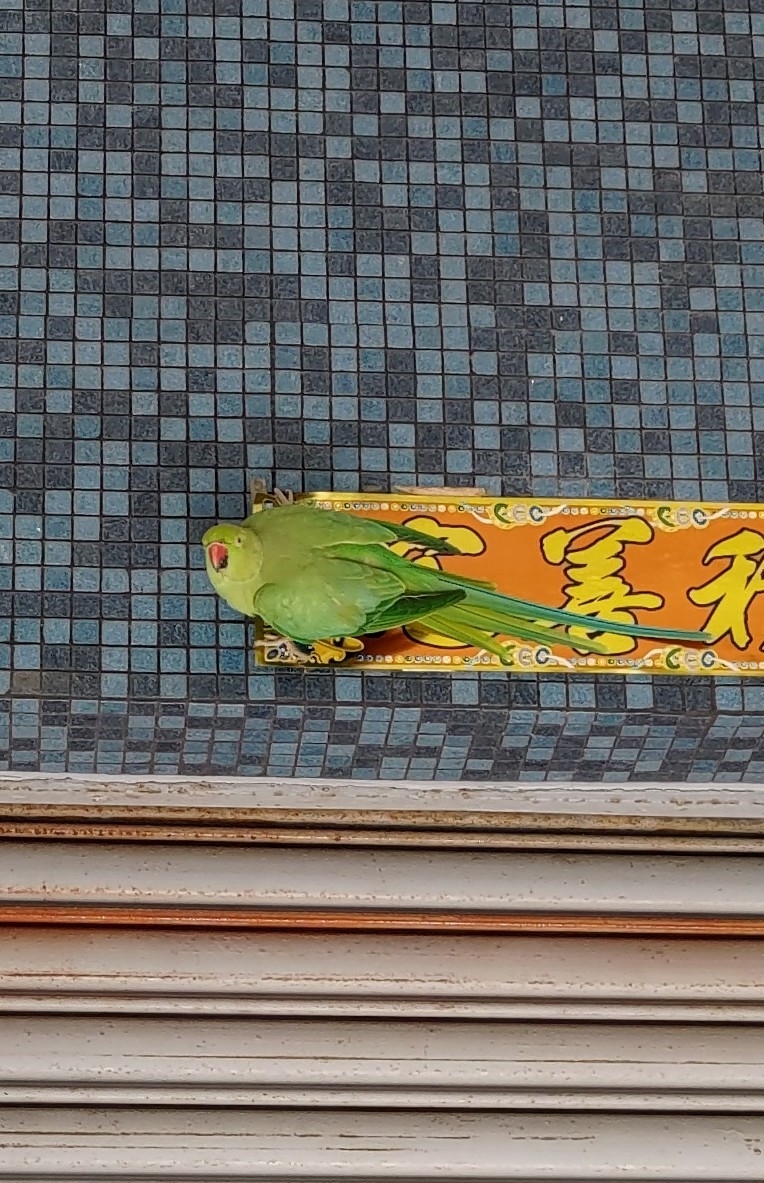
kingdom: Animalia
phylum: Chordata
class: Aves
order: Psittaciformes
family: Psittacidae
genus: Psittacula
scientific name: Psittacula krameri
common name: Rose-ringed parakeet
